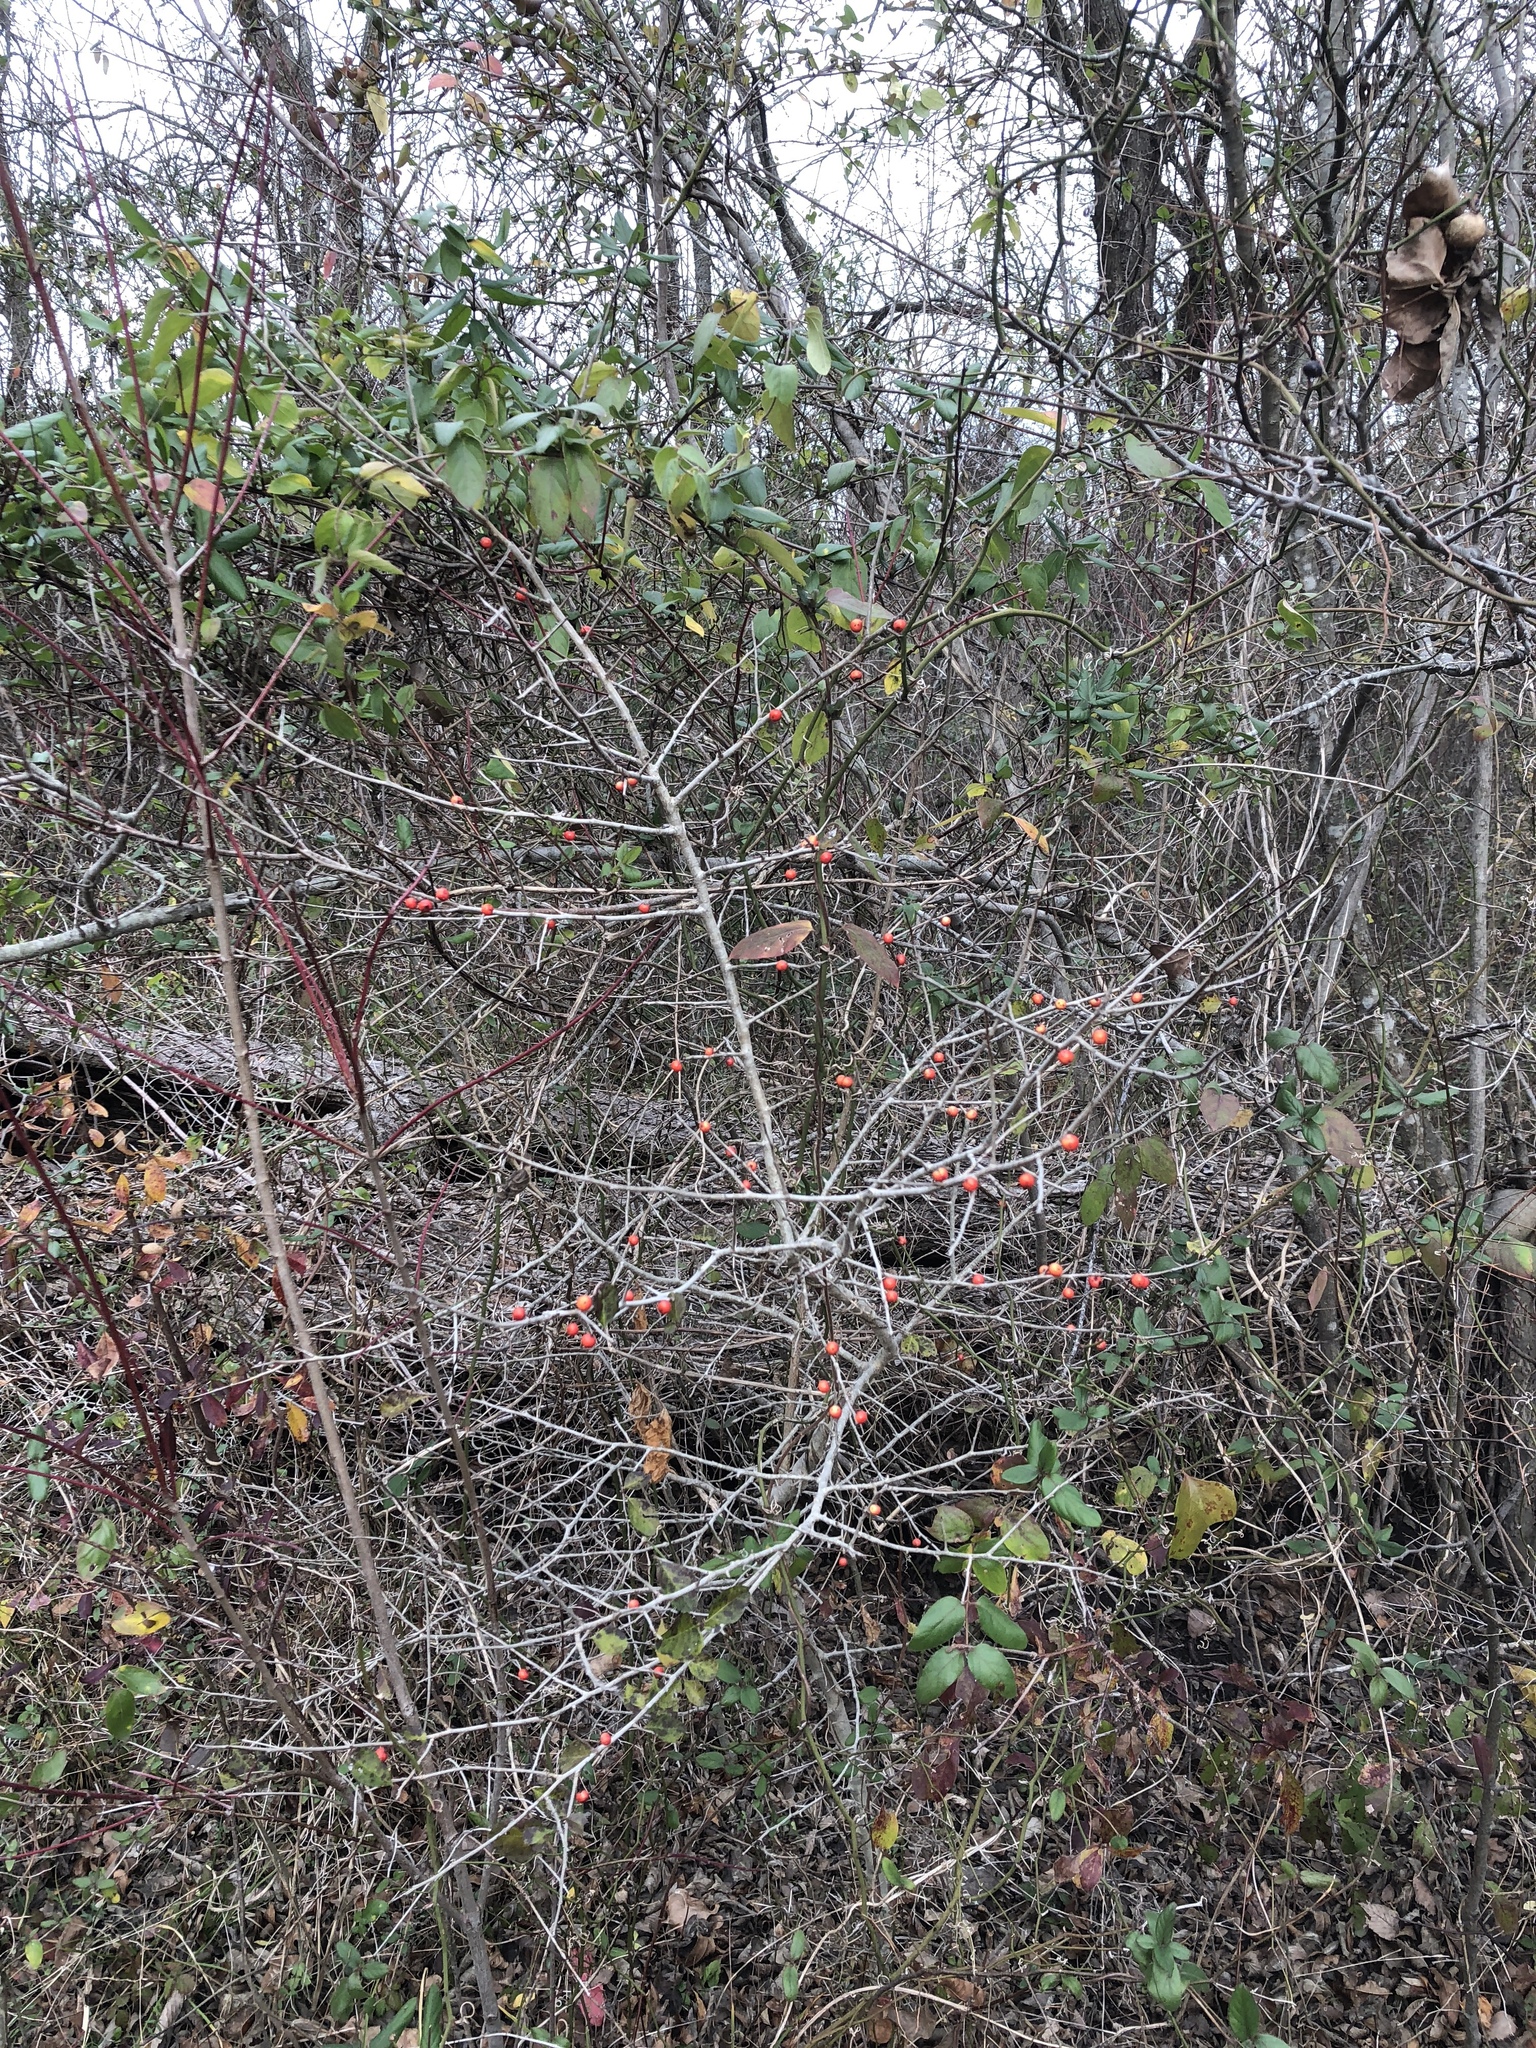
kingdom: Plantae
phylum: Tracheophyta
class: Magnoliopsida
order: Aquifoliales
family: Aquifoliaceae
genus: Ilex
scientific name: Ilex decidua
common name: Possum-haw
